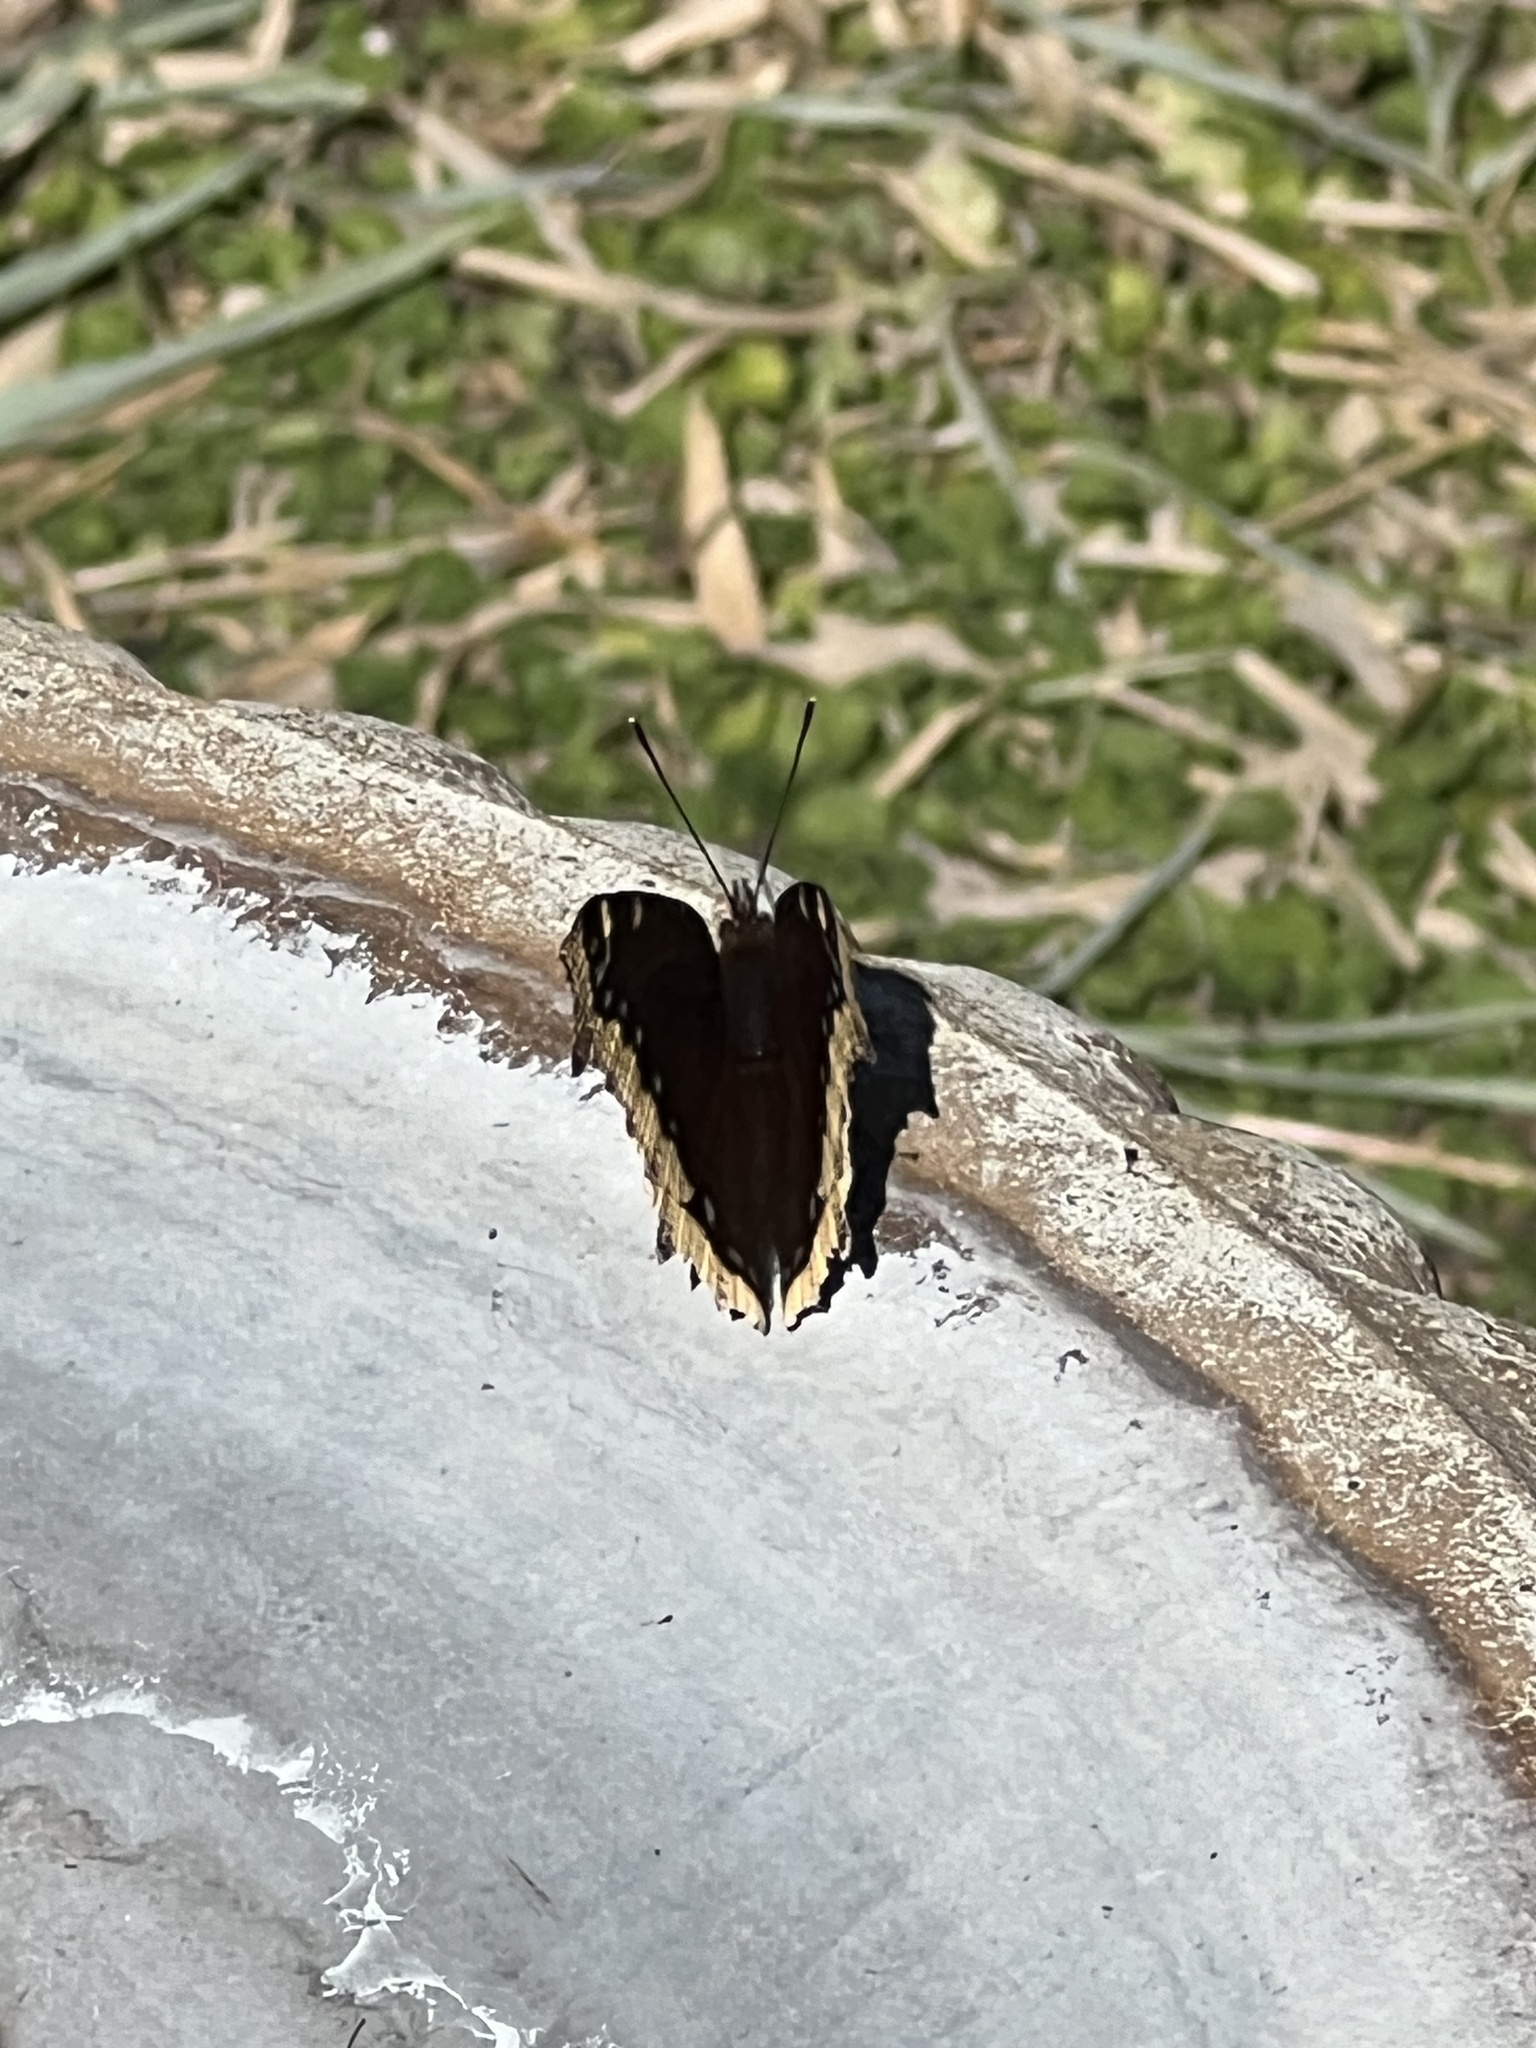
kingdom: Animalia
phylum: Arthropoda
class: Insecta
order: Lepidoptera
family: Nymphalidae
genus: Nymphalis
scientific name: Nymphalis antiopa
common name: Camberwell beauty
